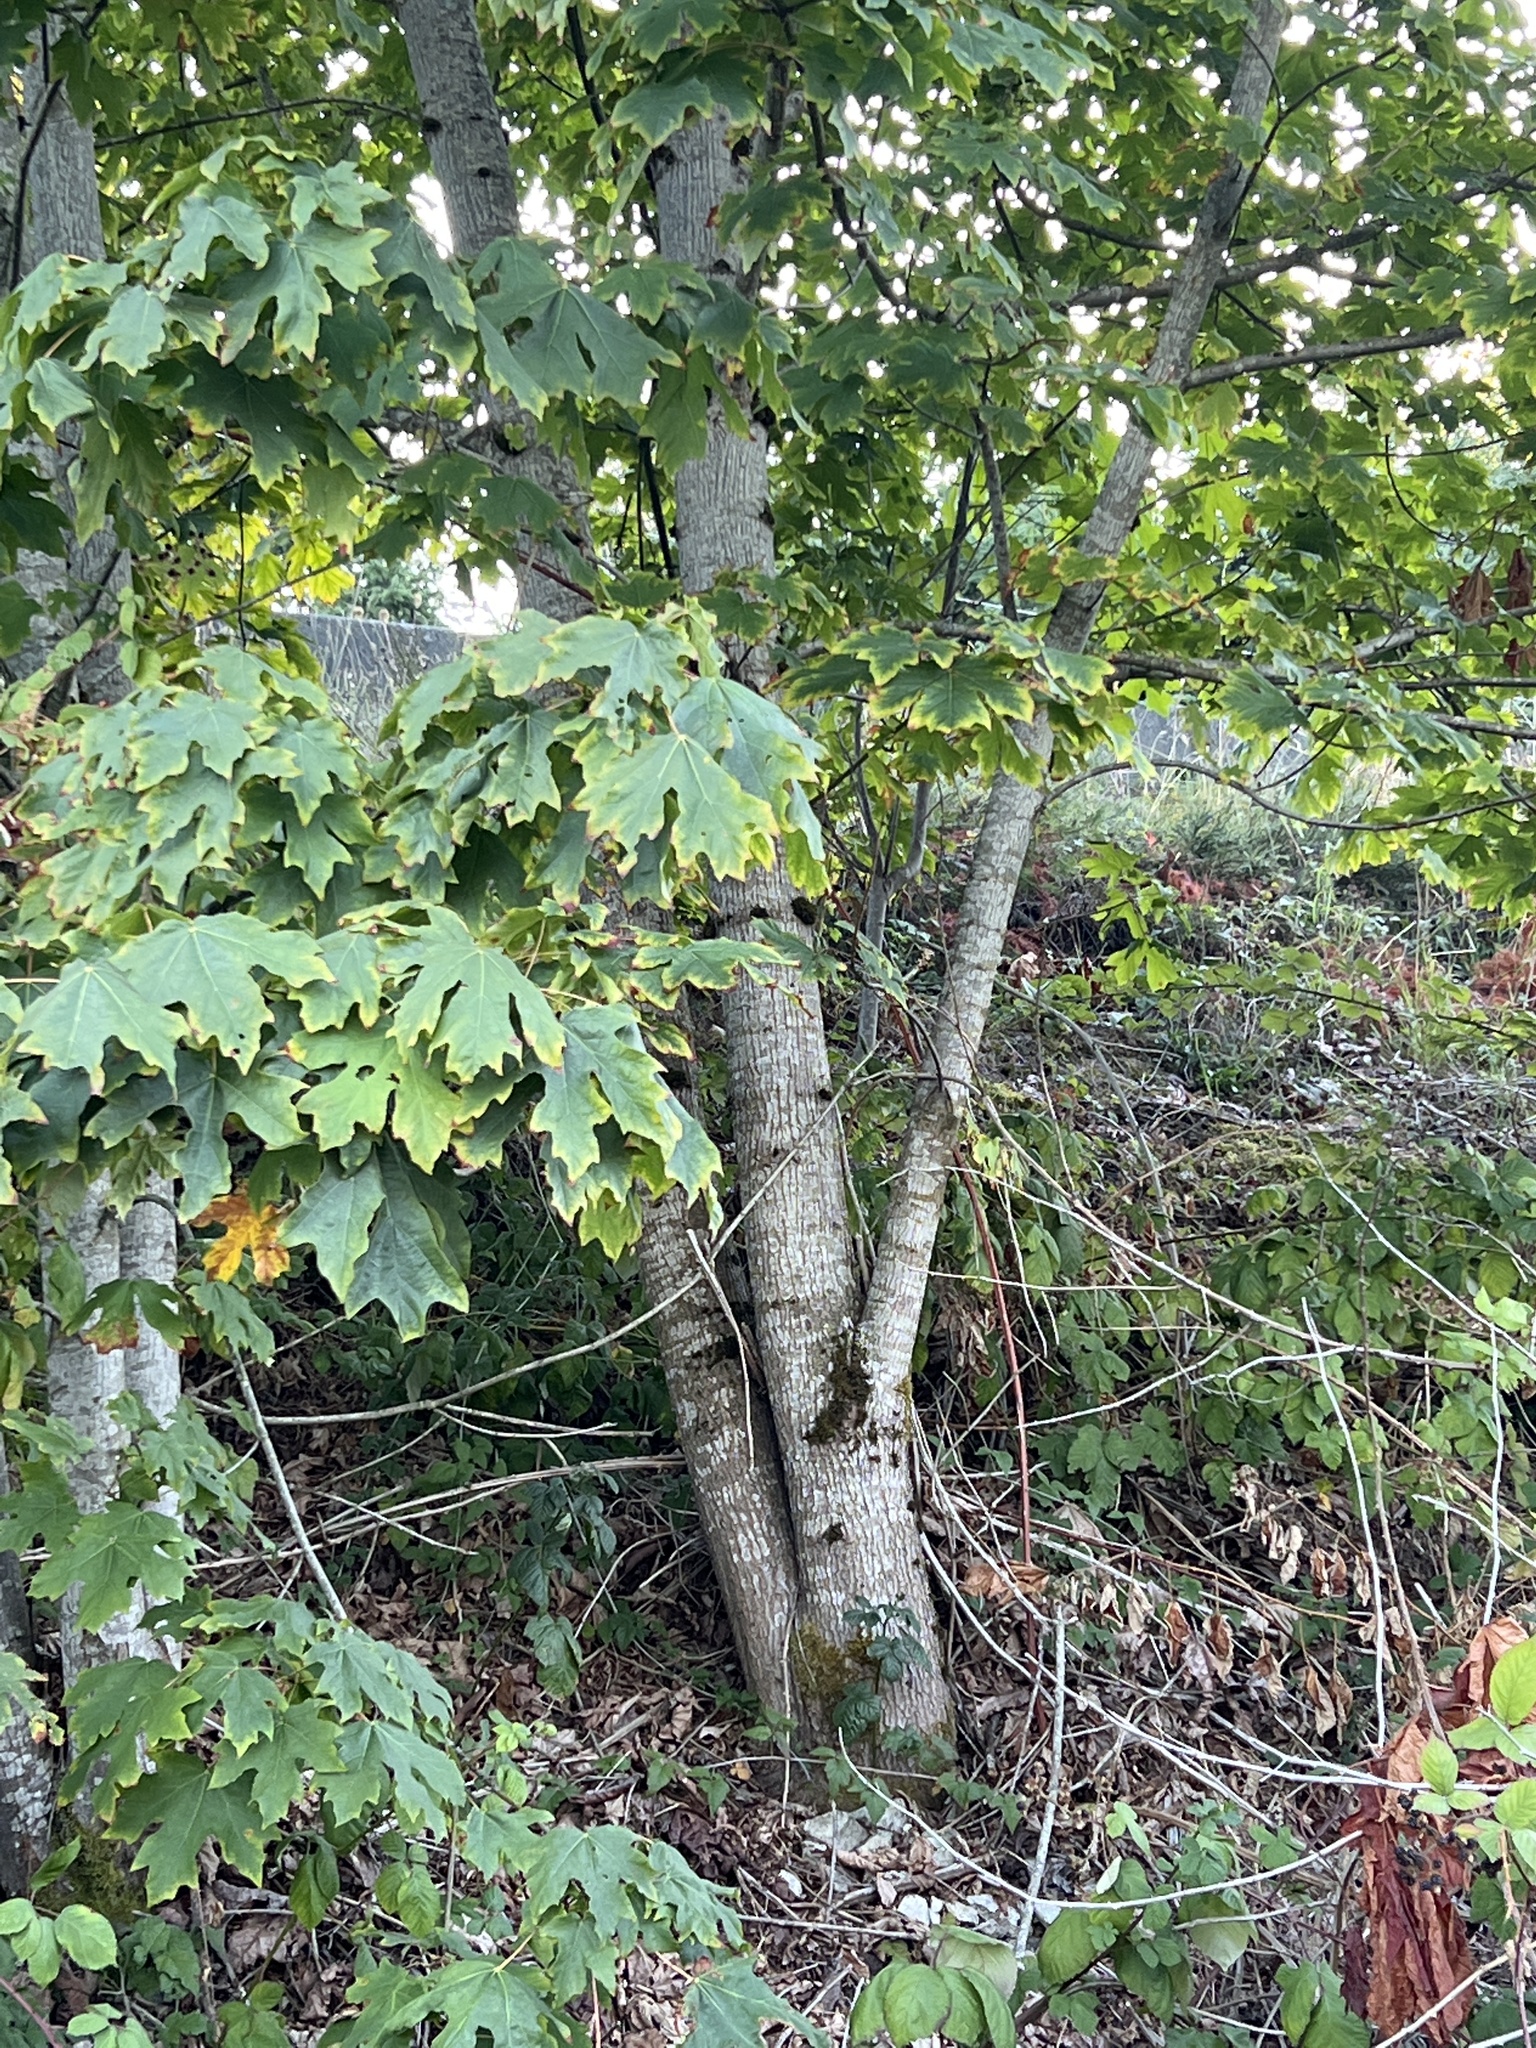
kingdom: Plantae
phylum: Tracheophyta
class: Magnoliopsida
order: Sapindales
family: Sapindaceae
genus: Acer
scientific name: Acer macrophyllum
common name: Oregon maple
